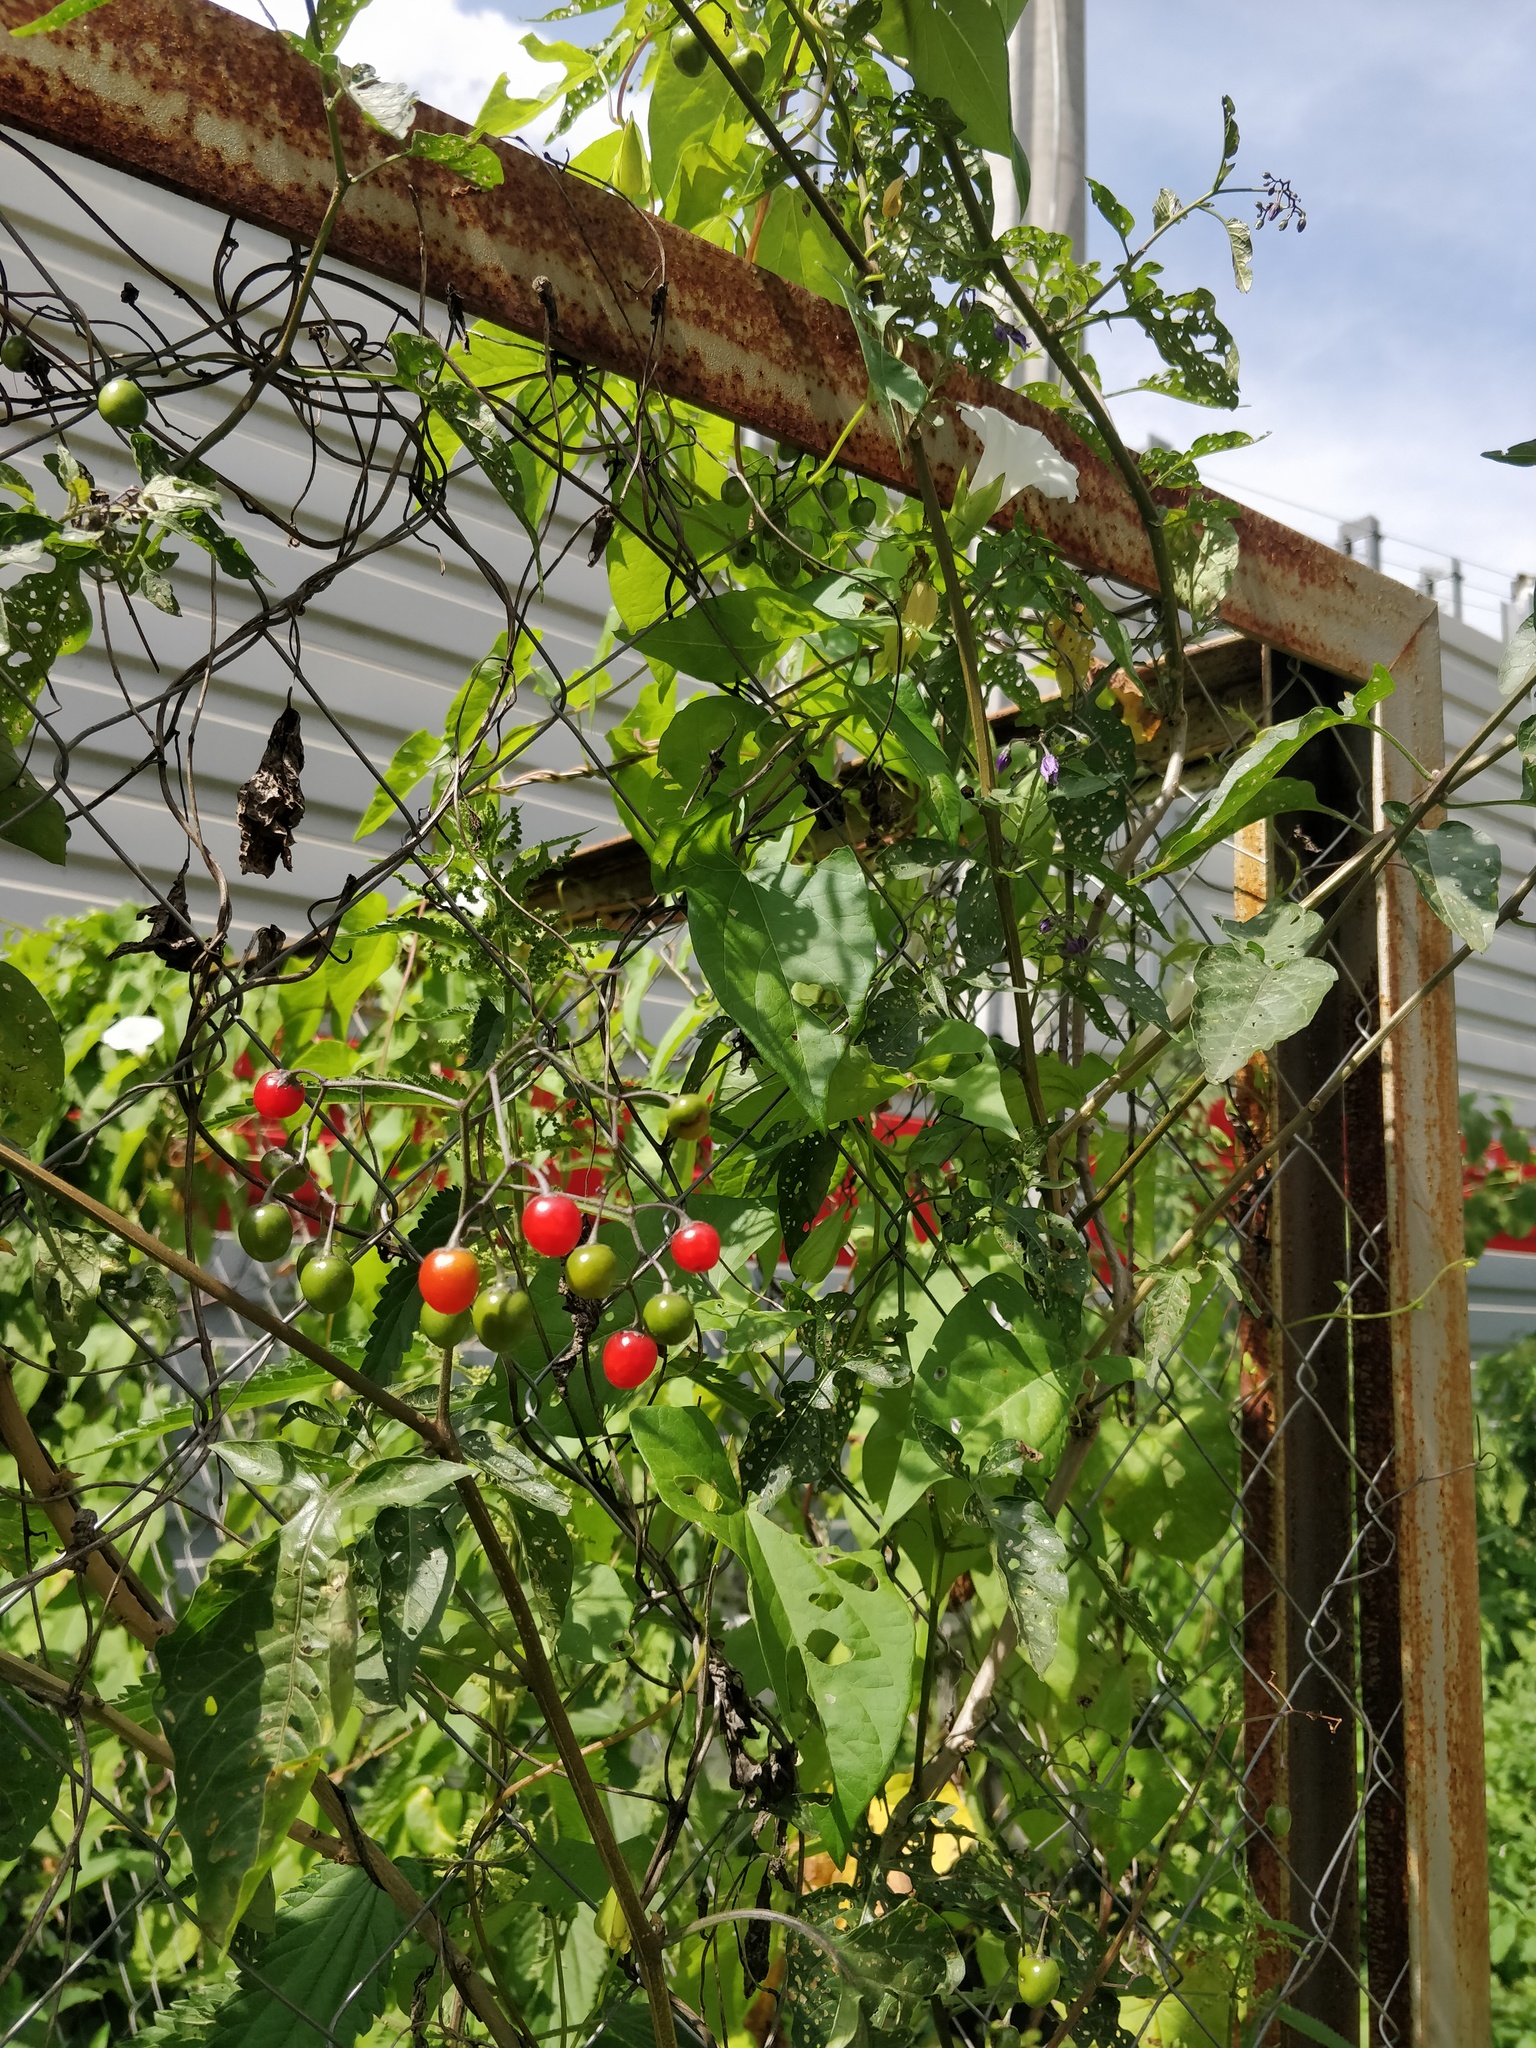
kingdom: Plantae
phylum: Tracheophyta
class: Magnoliopsida
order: Solanales
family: Solanaceae
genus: Solanum
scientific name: Solanum dulcamara
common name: Climbing nightshade
